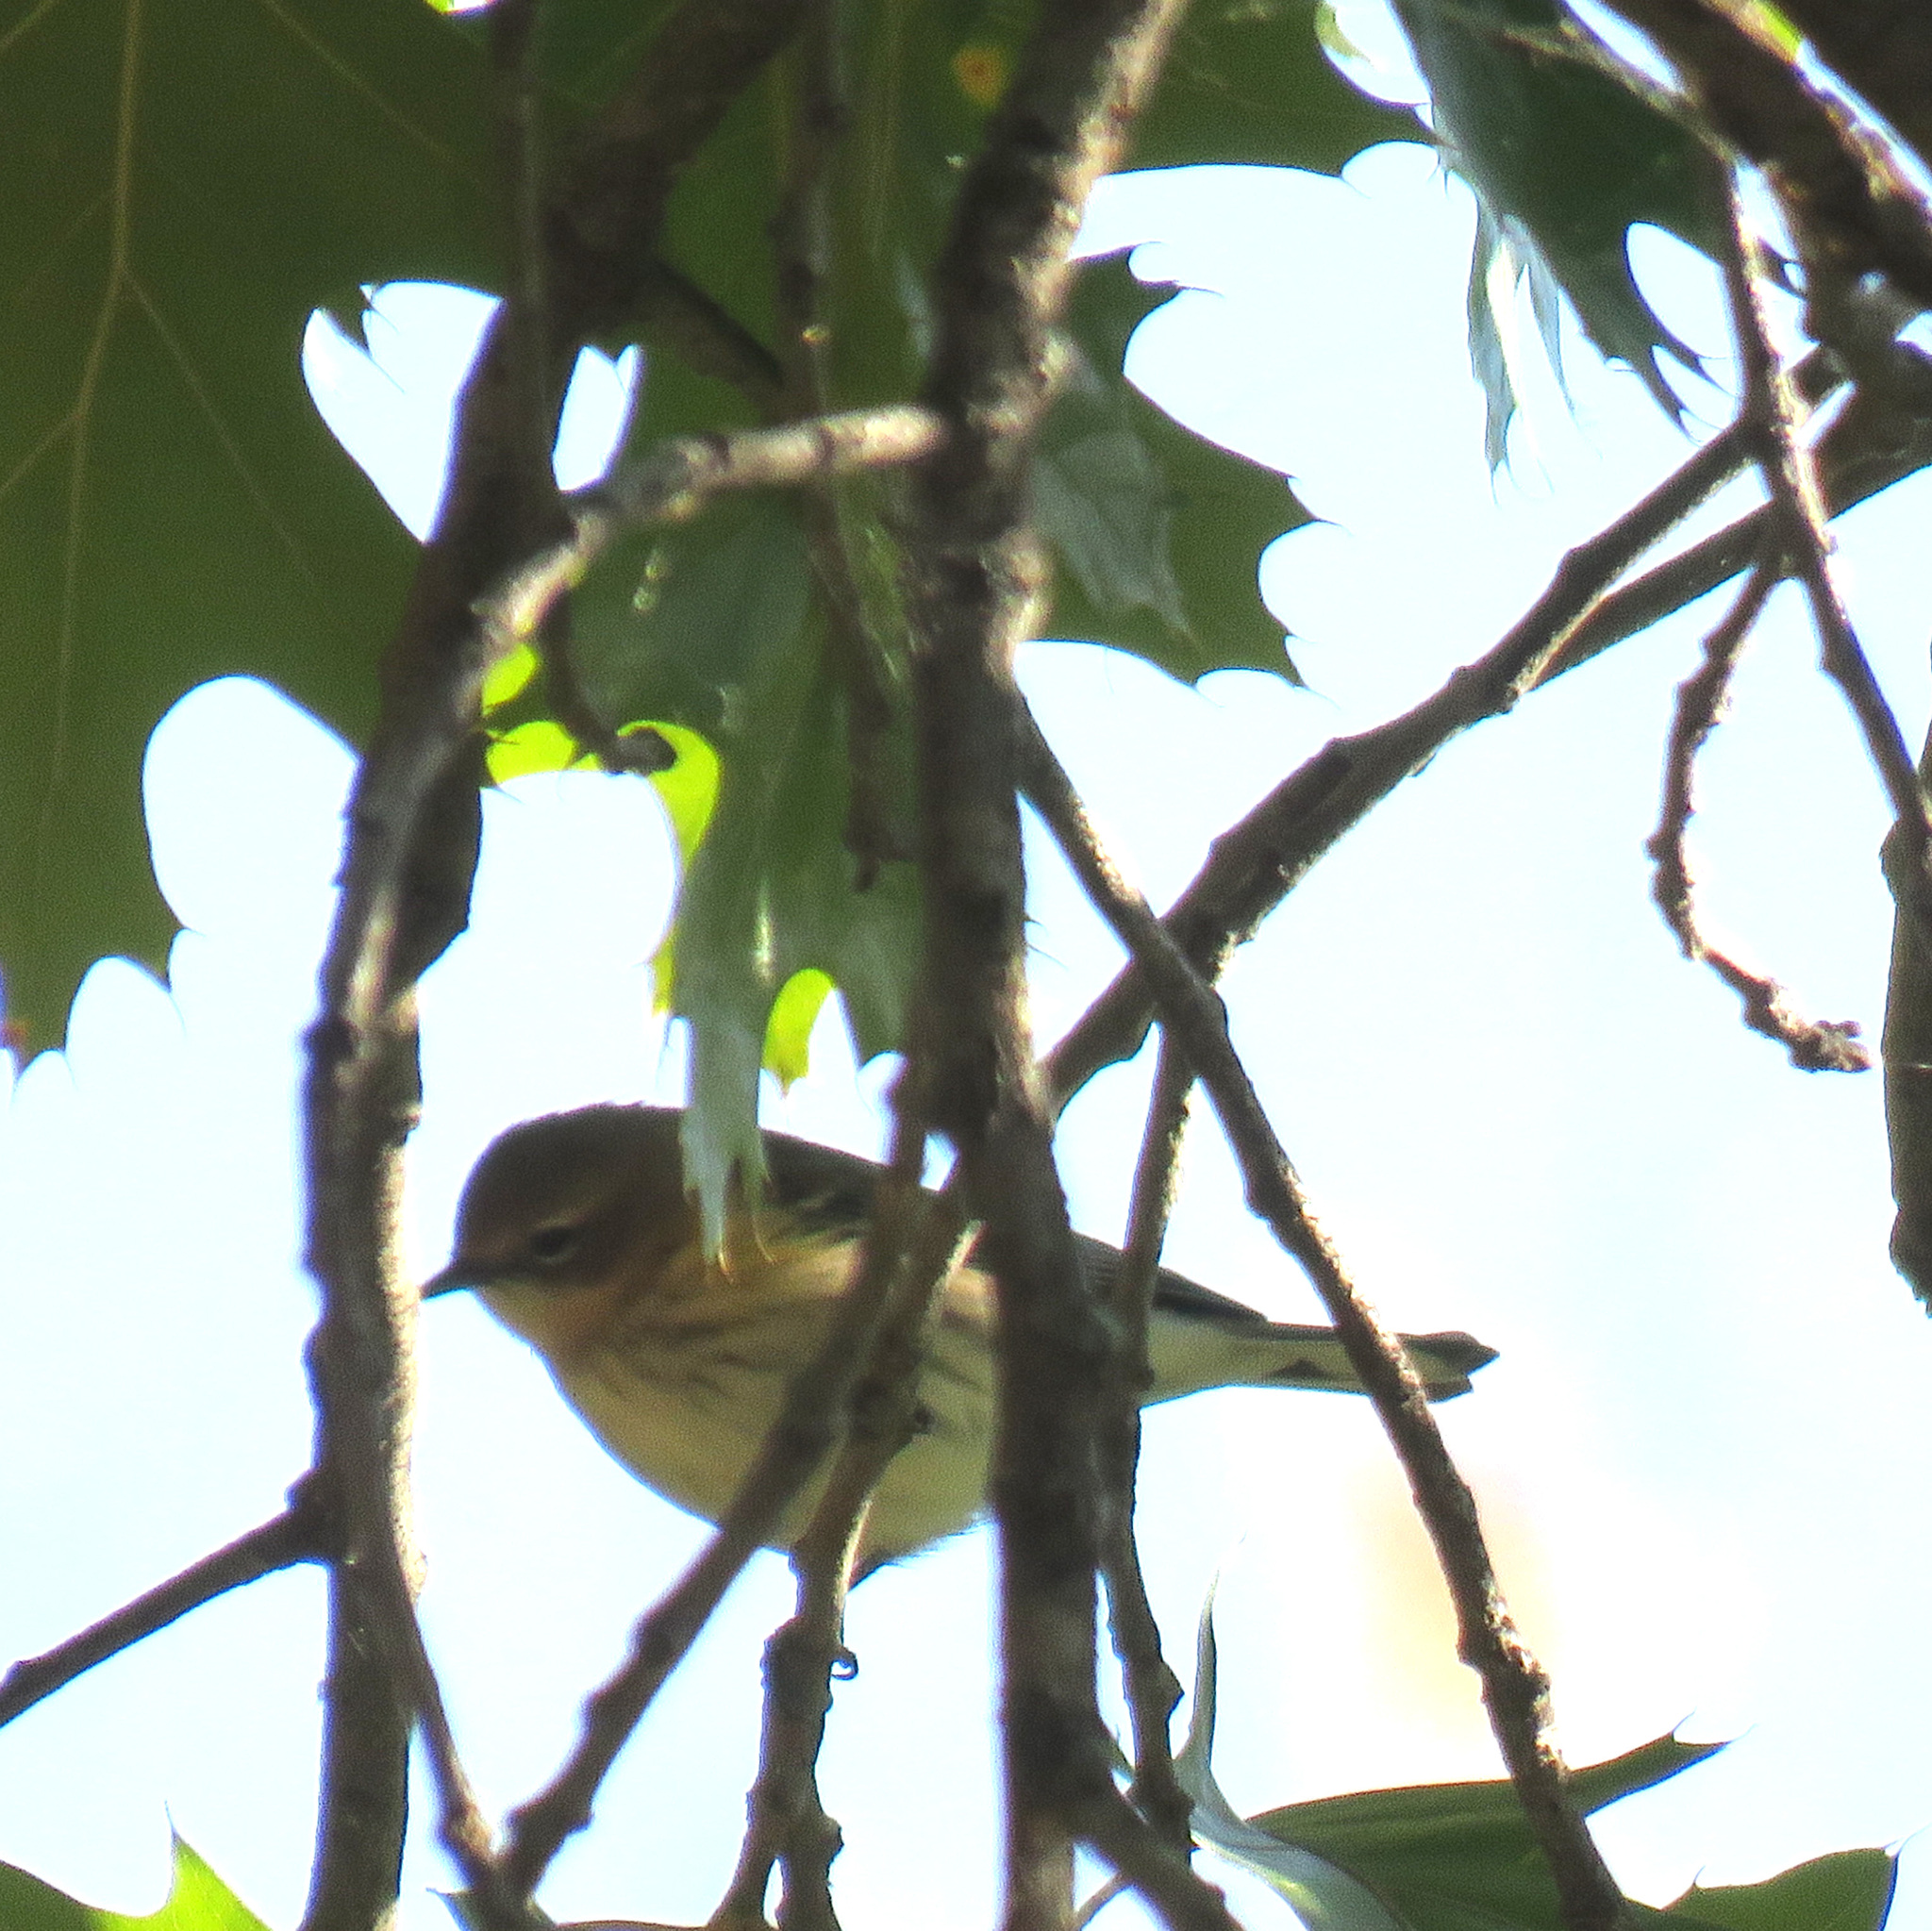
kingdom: Animalia
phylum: Chordata
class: Aves
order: Passeriformes
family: Parulidae
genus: Setophaga
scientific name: Setophaga coronata
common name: Myrtle warbler
